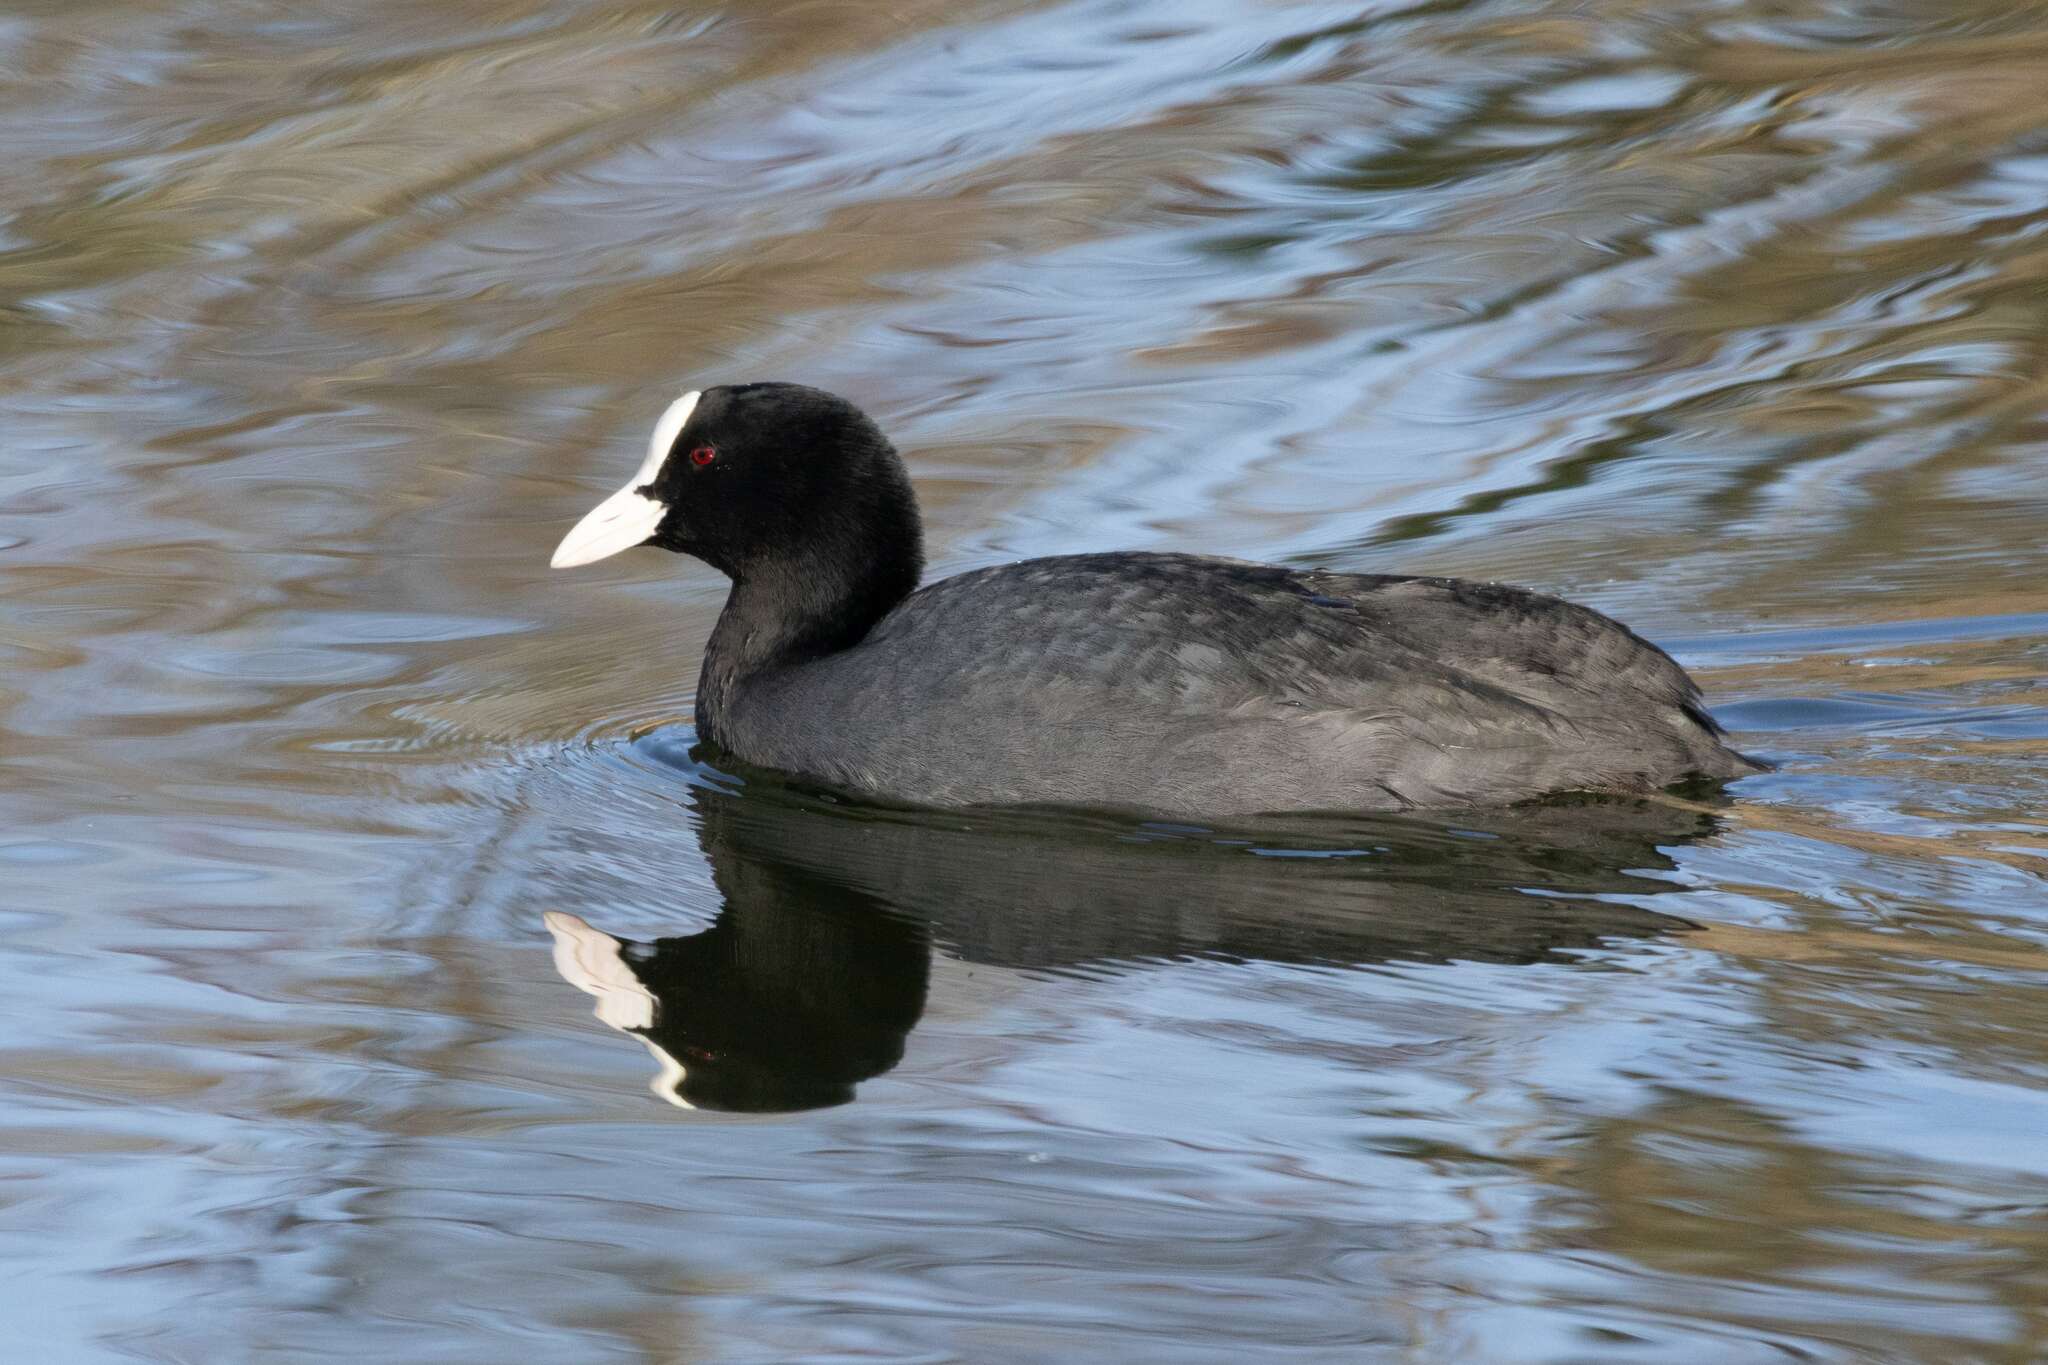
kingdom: Animalia
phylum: Chordata
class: Aves
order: Gruiformes
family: Rallidae
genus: Fulica
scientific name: Fulica atra
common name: Eurasian coot
